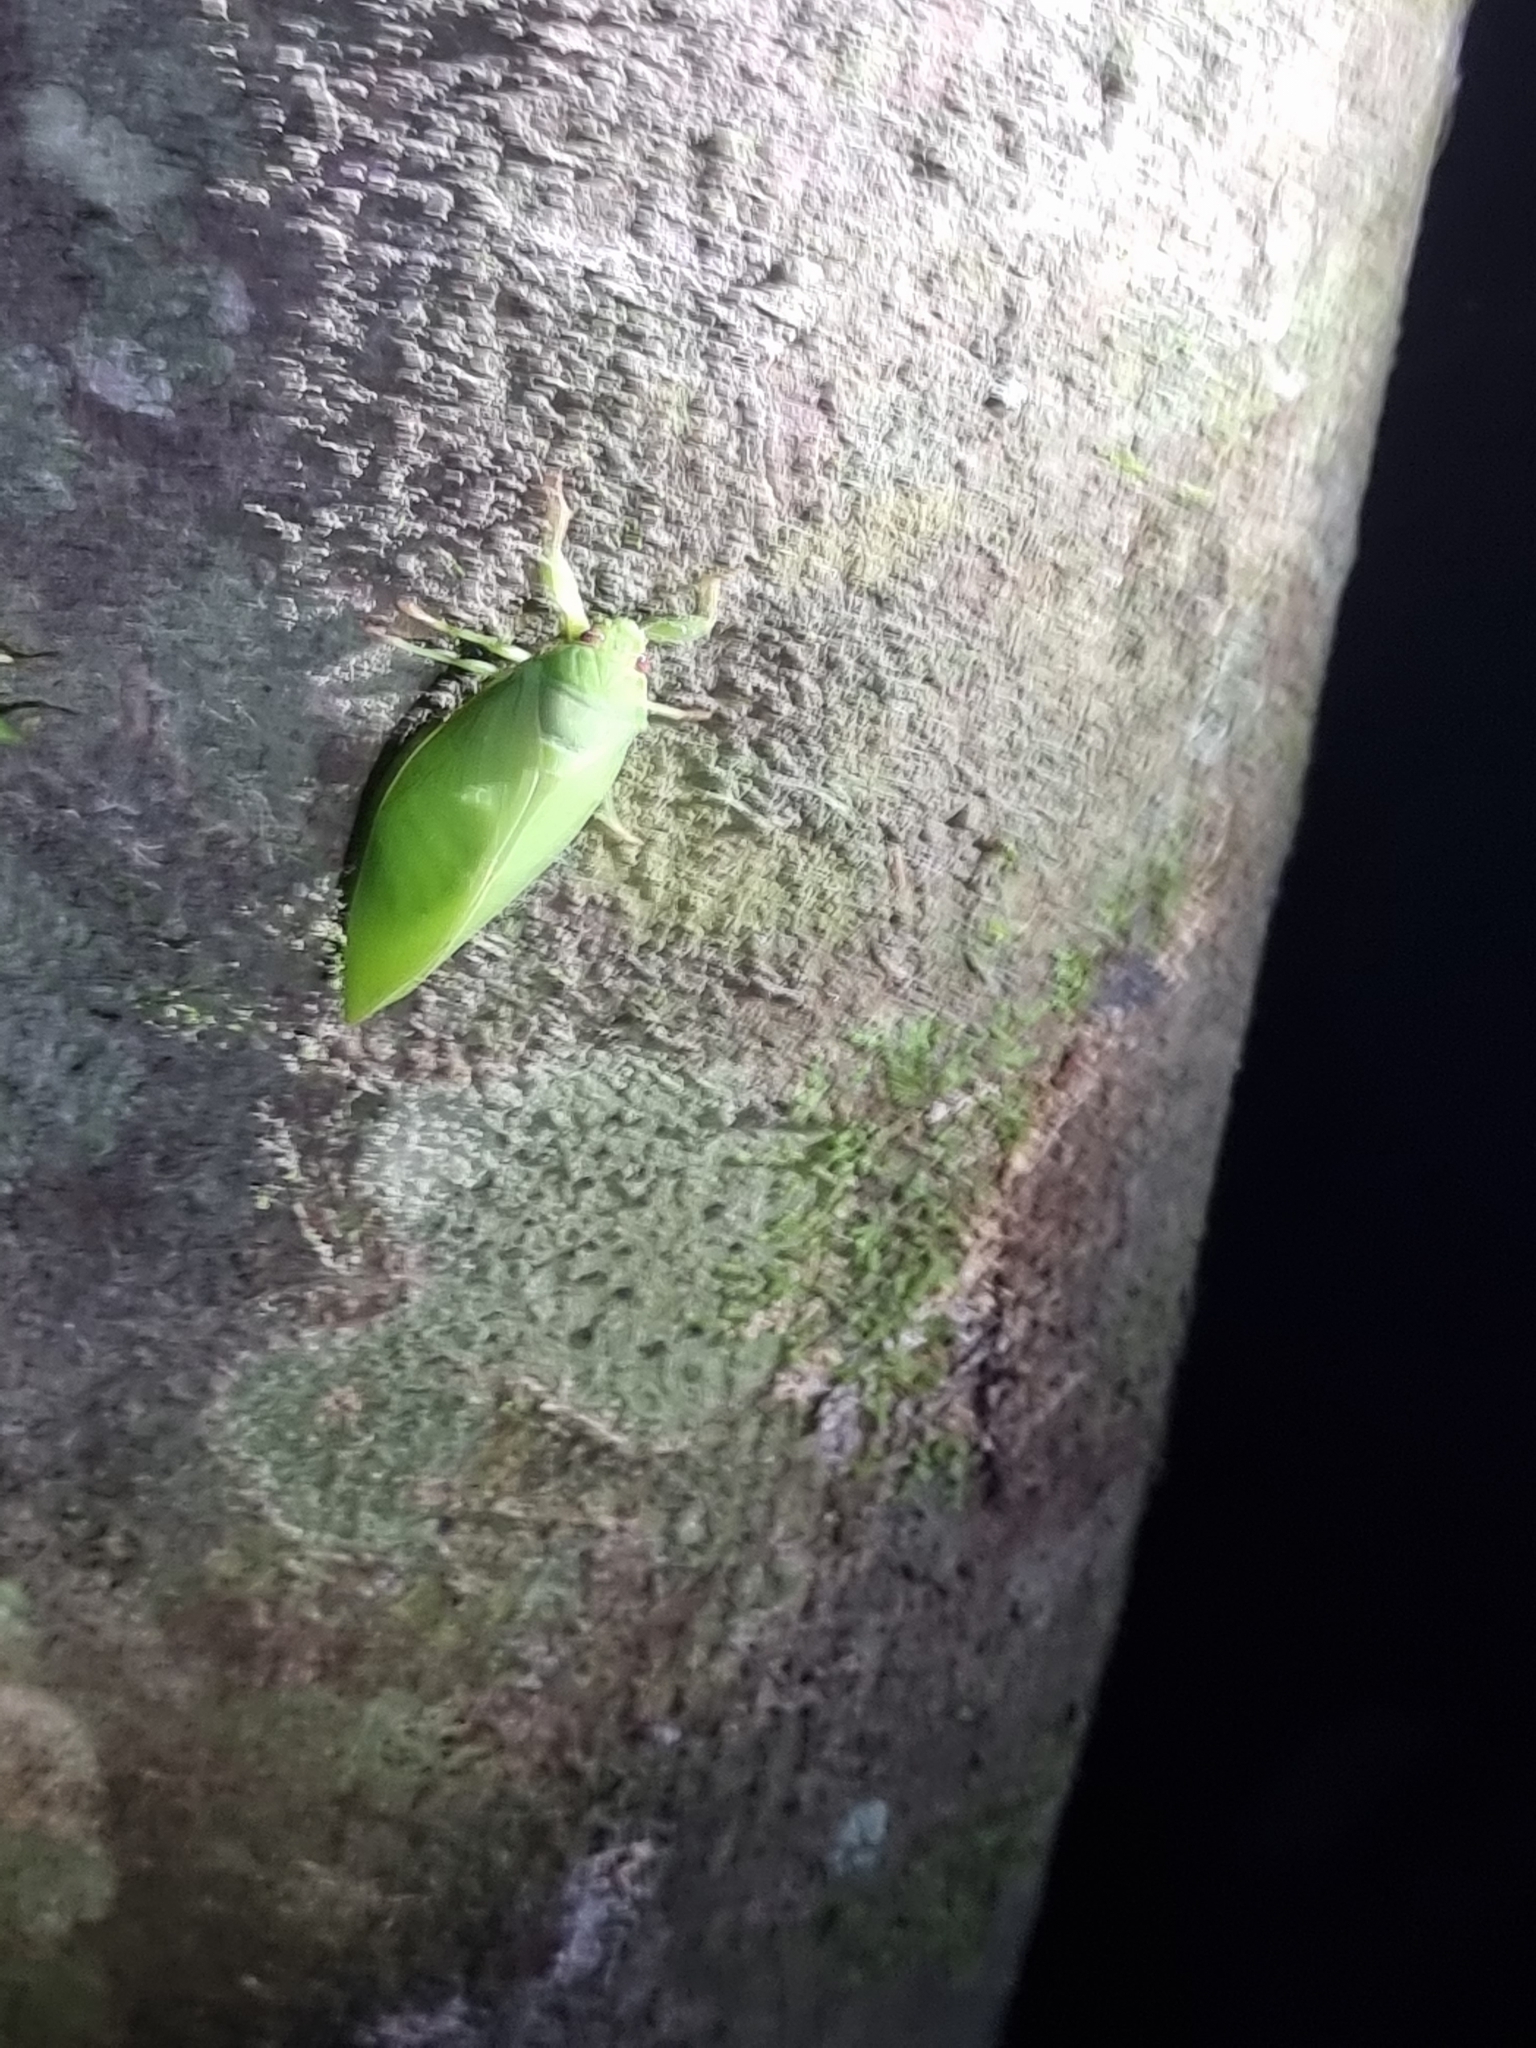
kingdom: Animalia
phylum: Arthropoda
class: Insecta
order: Hemiptera
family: Cicadidae
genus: Cystopsaltria
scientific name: Cystopsaltria immaculata
